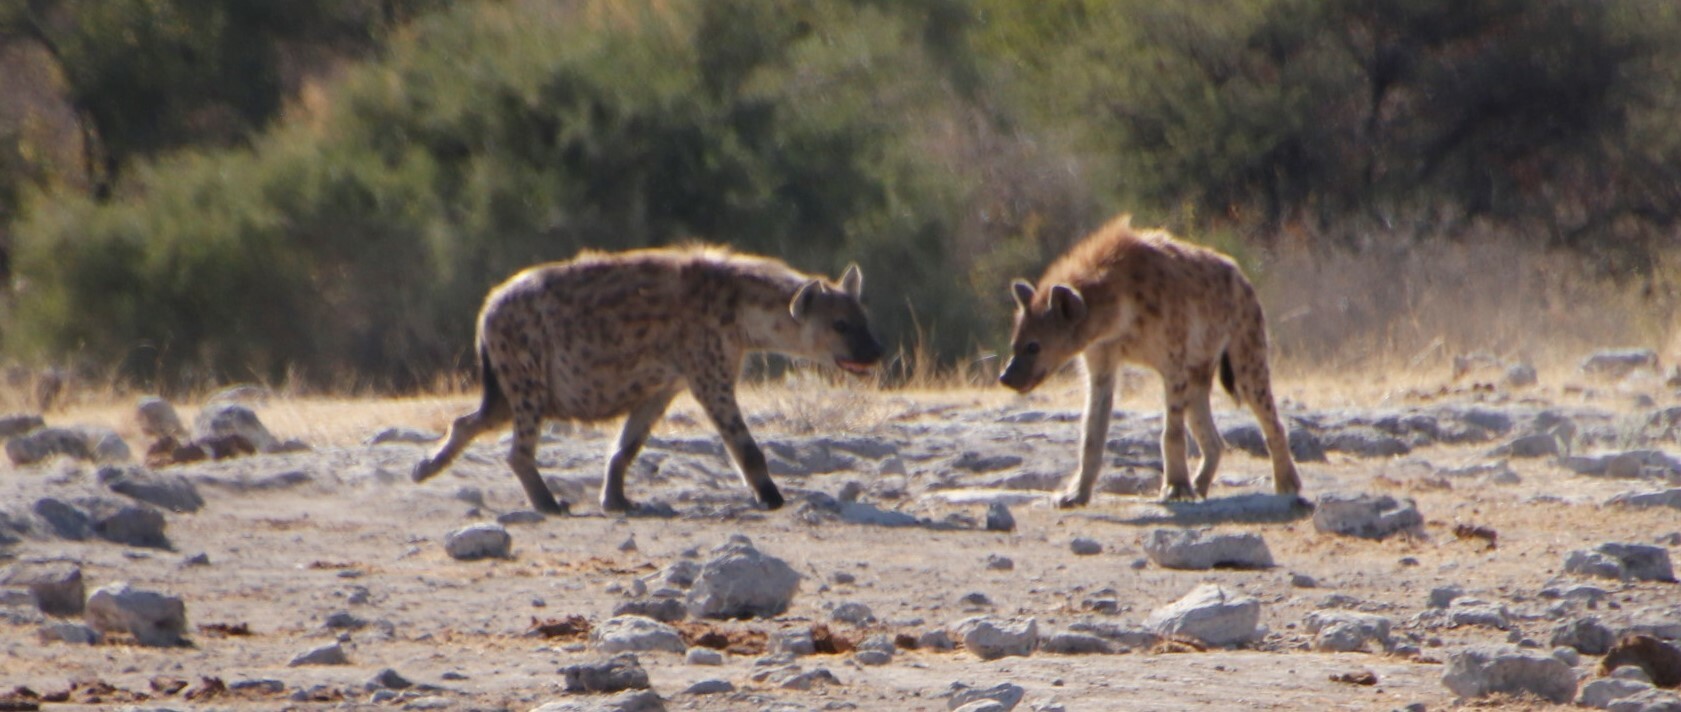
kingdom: Animalia
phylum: Chordata
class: Mammalia
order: Carnivora
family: Canidae
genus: Lupulella
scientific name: Lupulella
